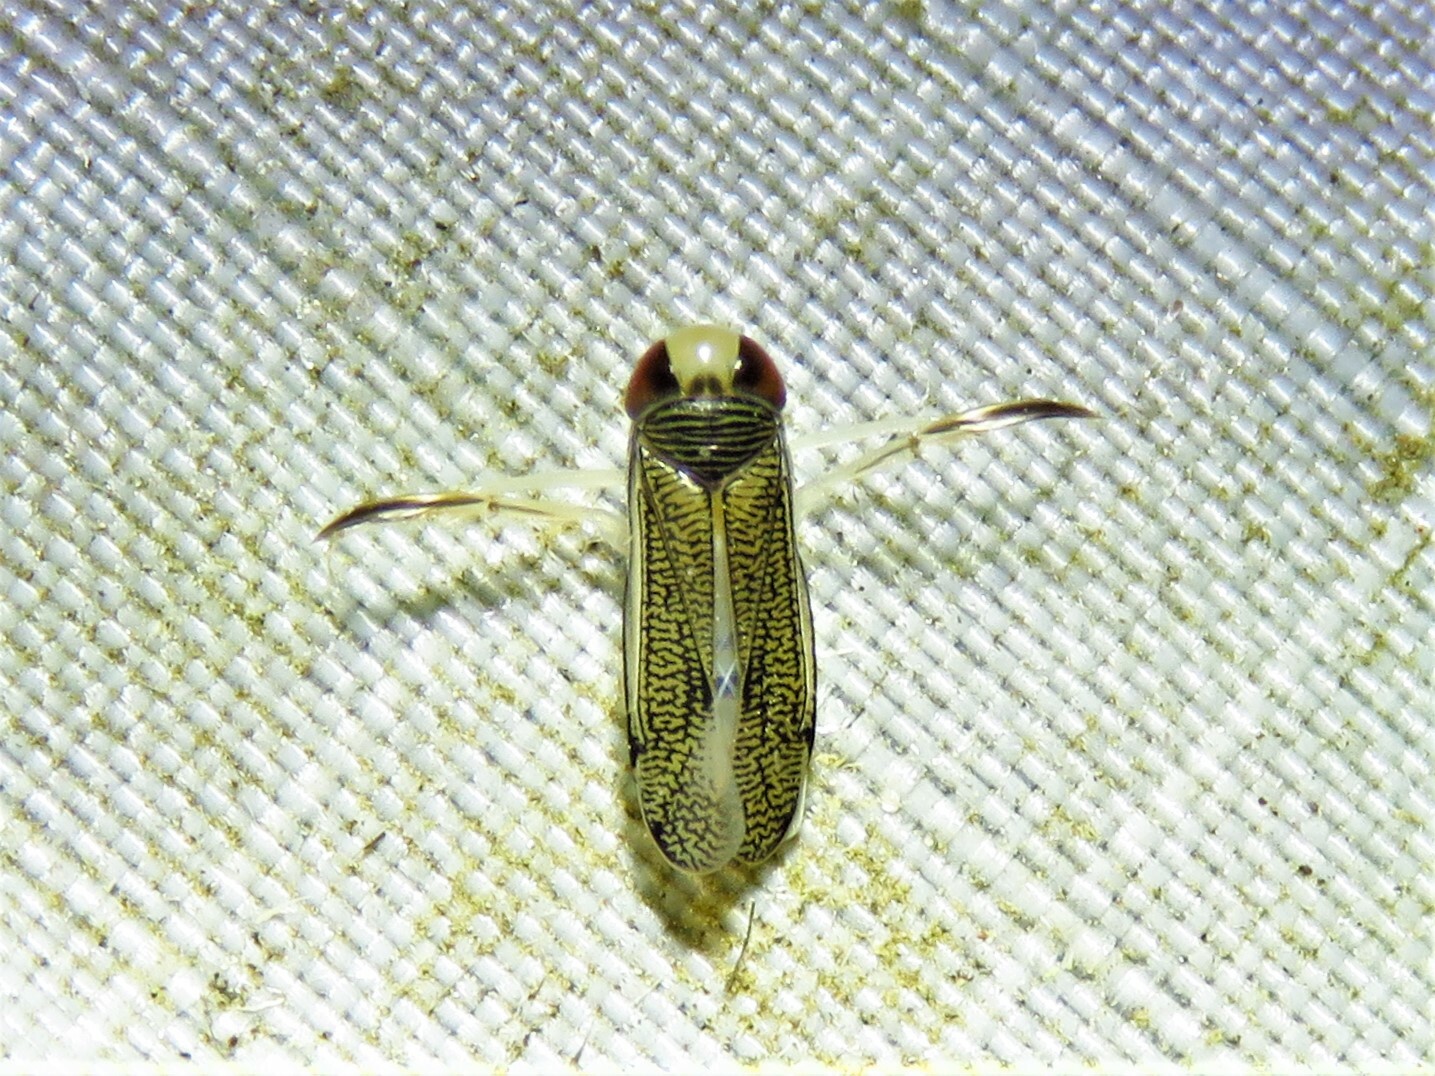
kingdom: Animalia
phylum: Arthropoda
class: Insecta
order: Hemiptera
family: Corixidae
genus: Trichocorixa
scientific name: Trichocorixa
